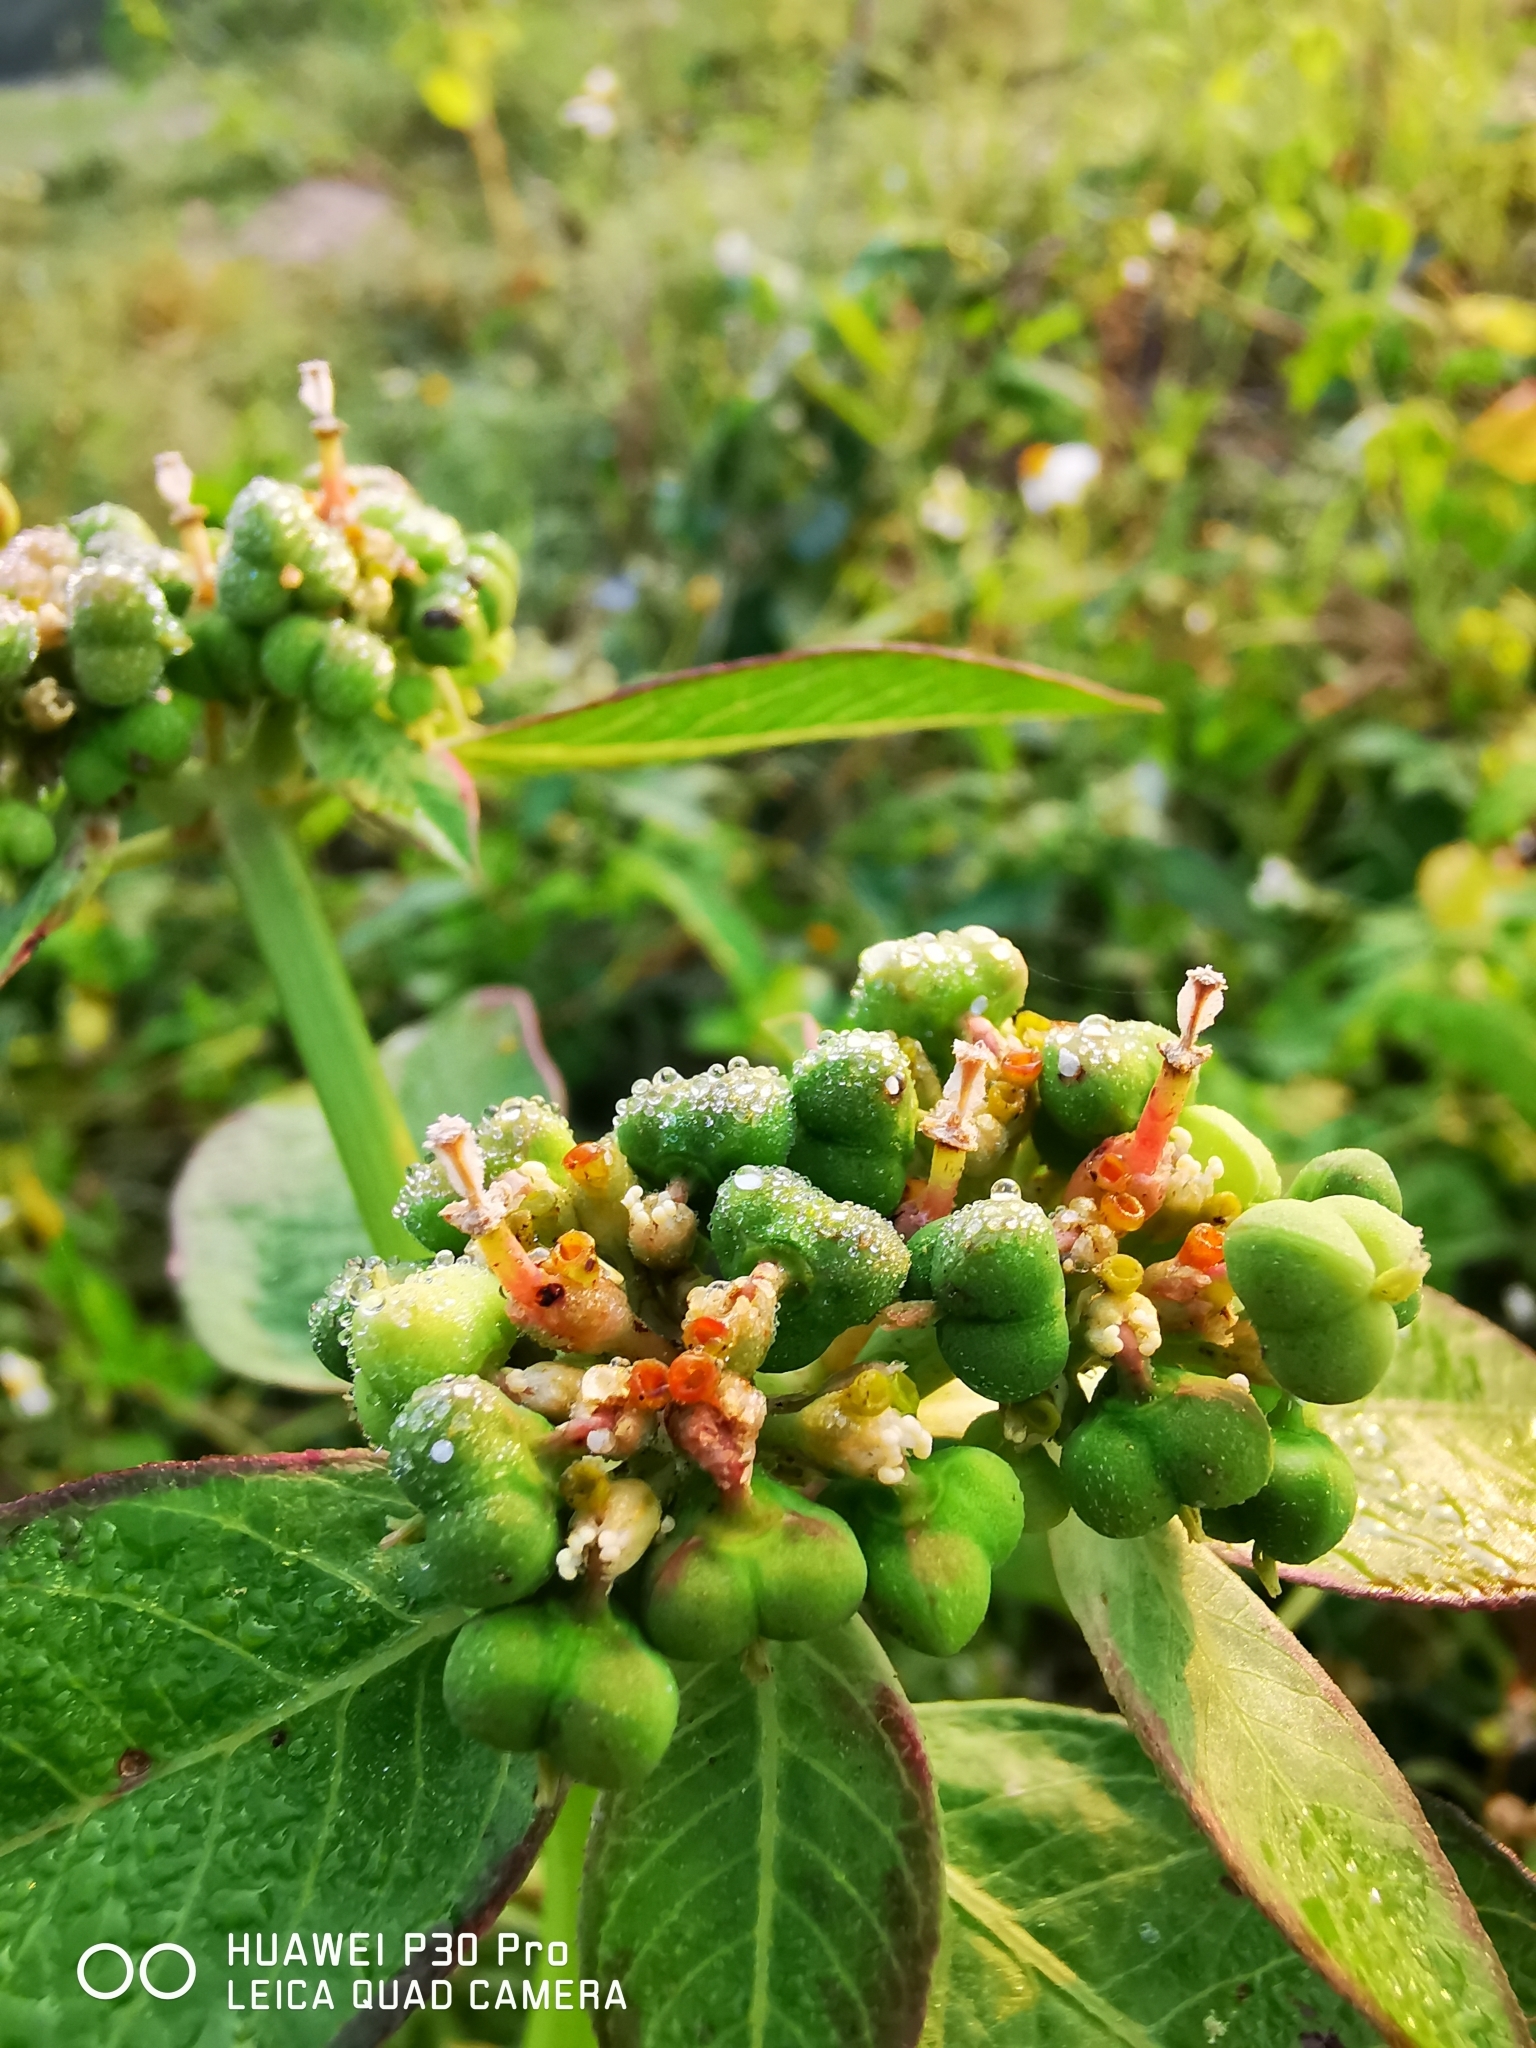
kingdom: Plantae
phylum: Tracheophyta
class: Magnoliopsida
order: Malpighiales
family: Euphorbiaceae
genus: Euphorbia
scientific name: Euphorbia heterophylla
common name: Mexican fireplant
